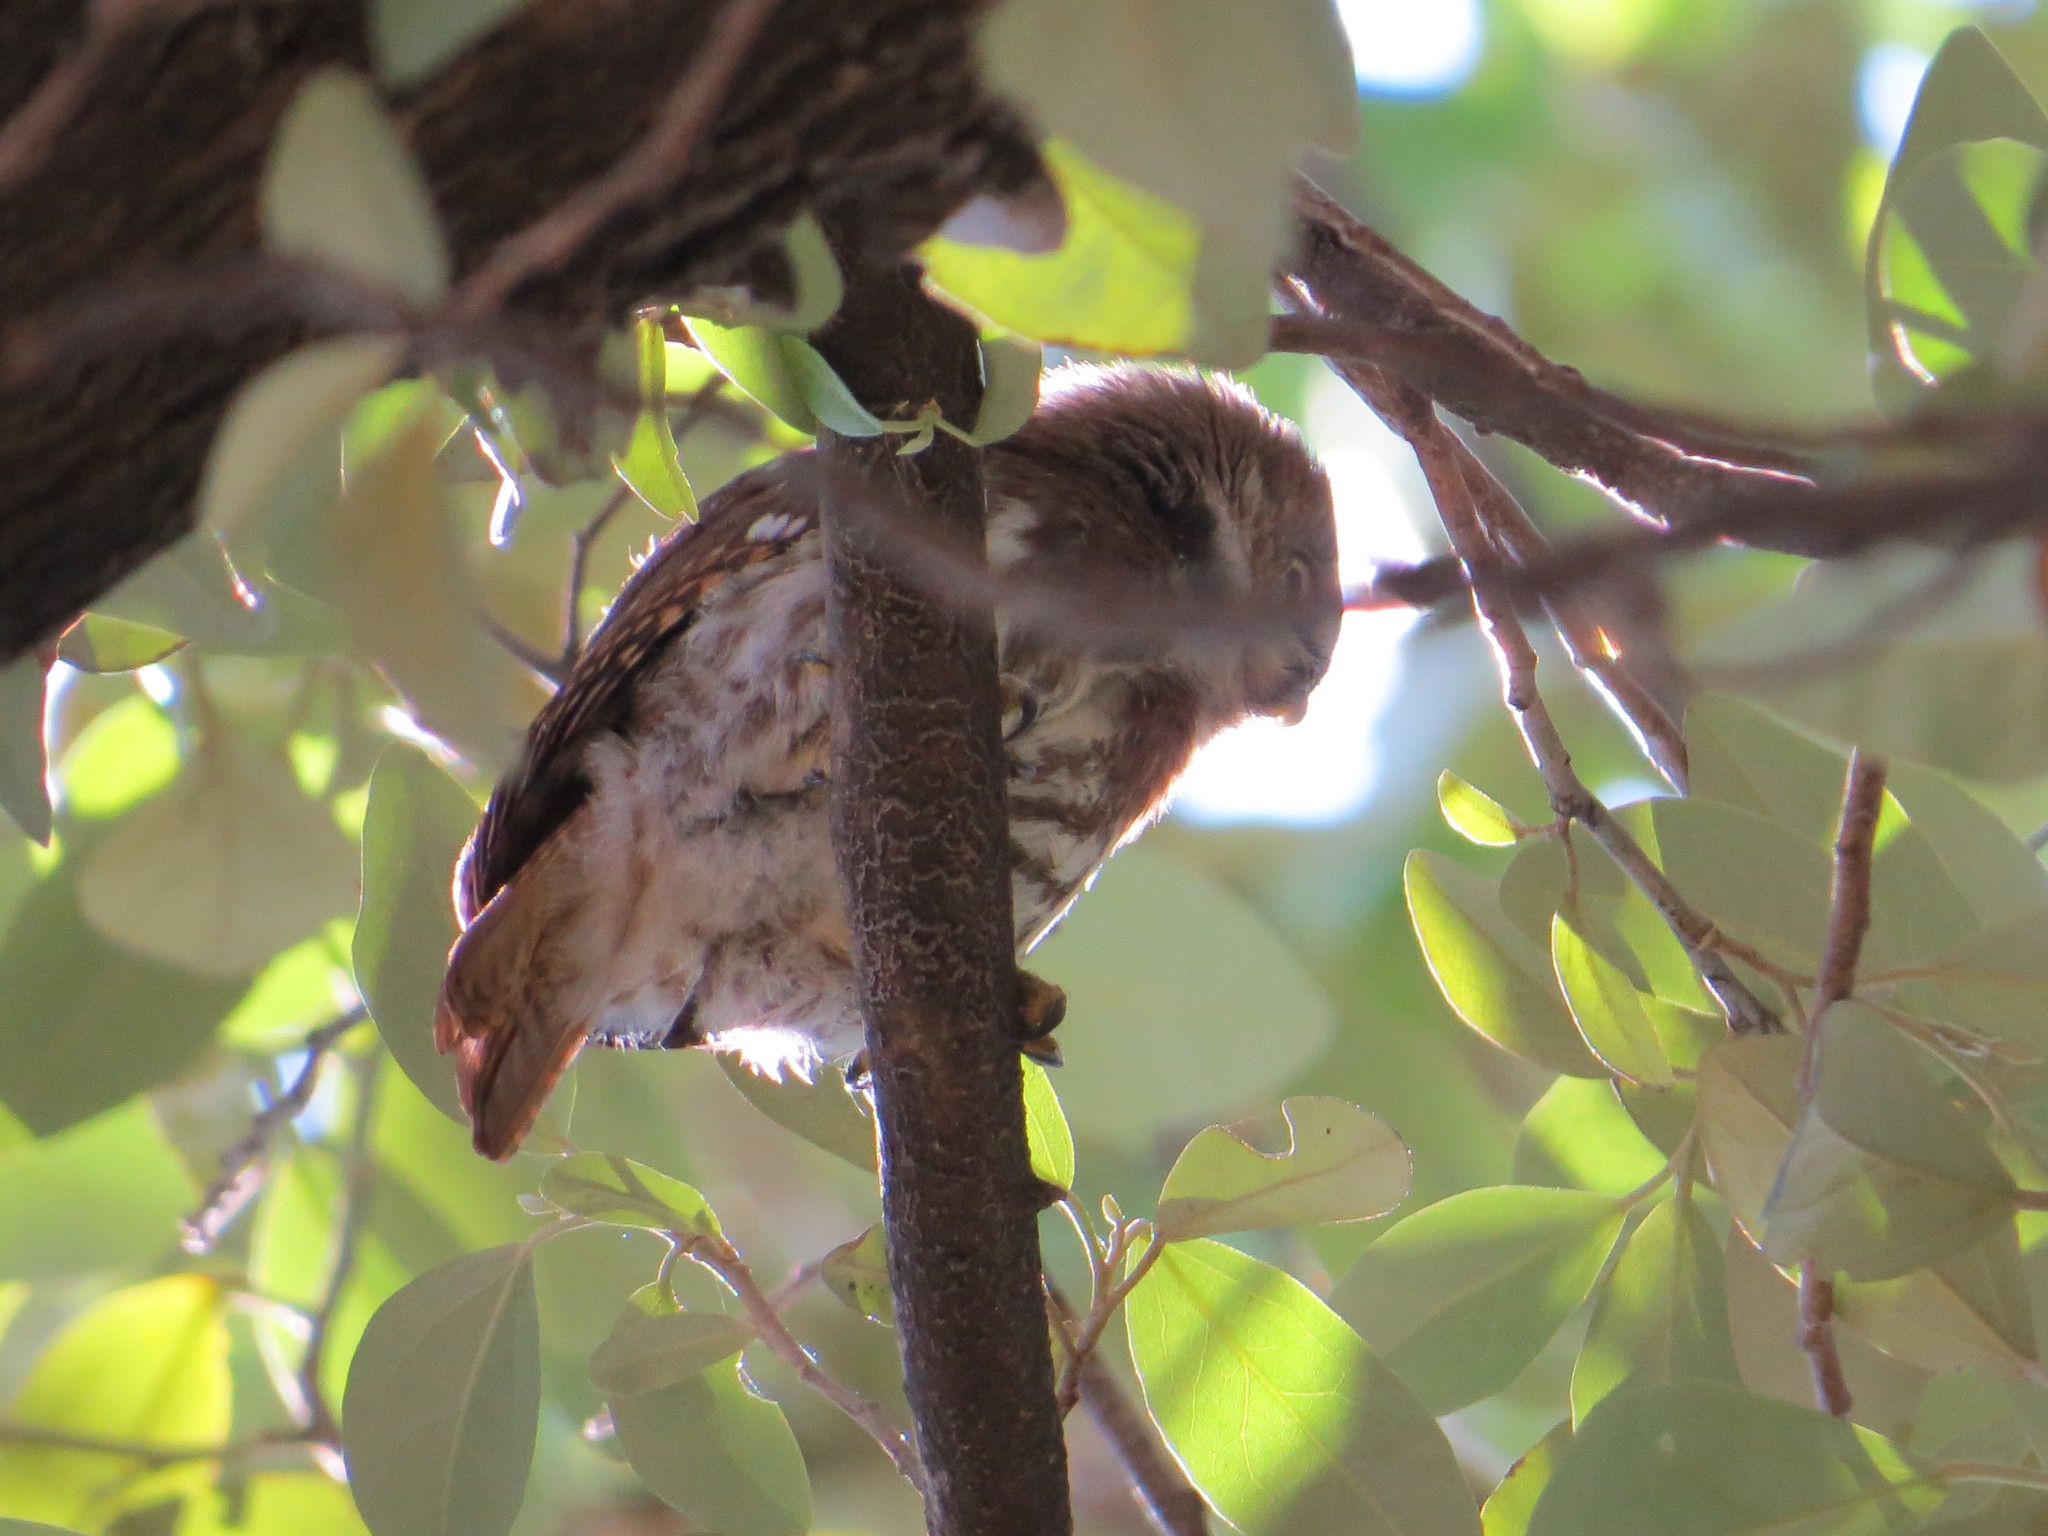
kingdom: Animalia
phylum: Chordata
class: Aves
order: Strigiformes
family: Strigidae
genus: Glaucidium
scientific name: Glaucidium brasilianum
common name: Ferruginous pygmy-owl
